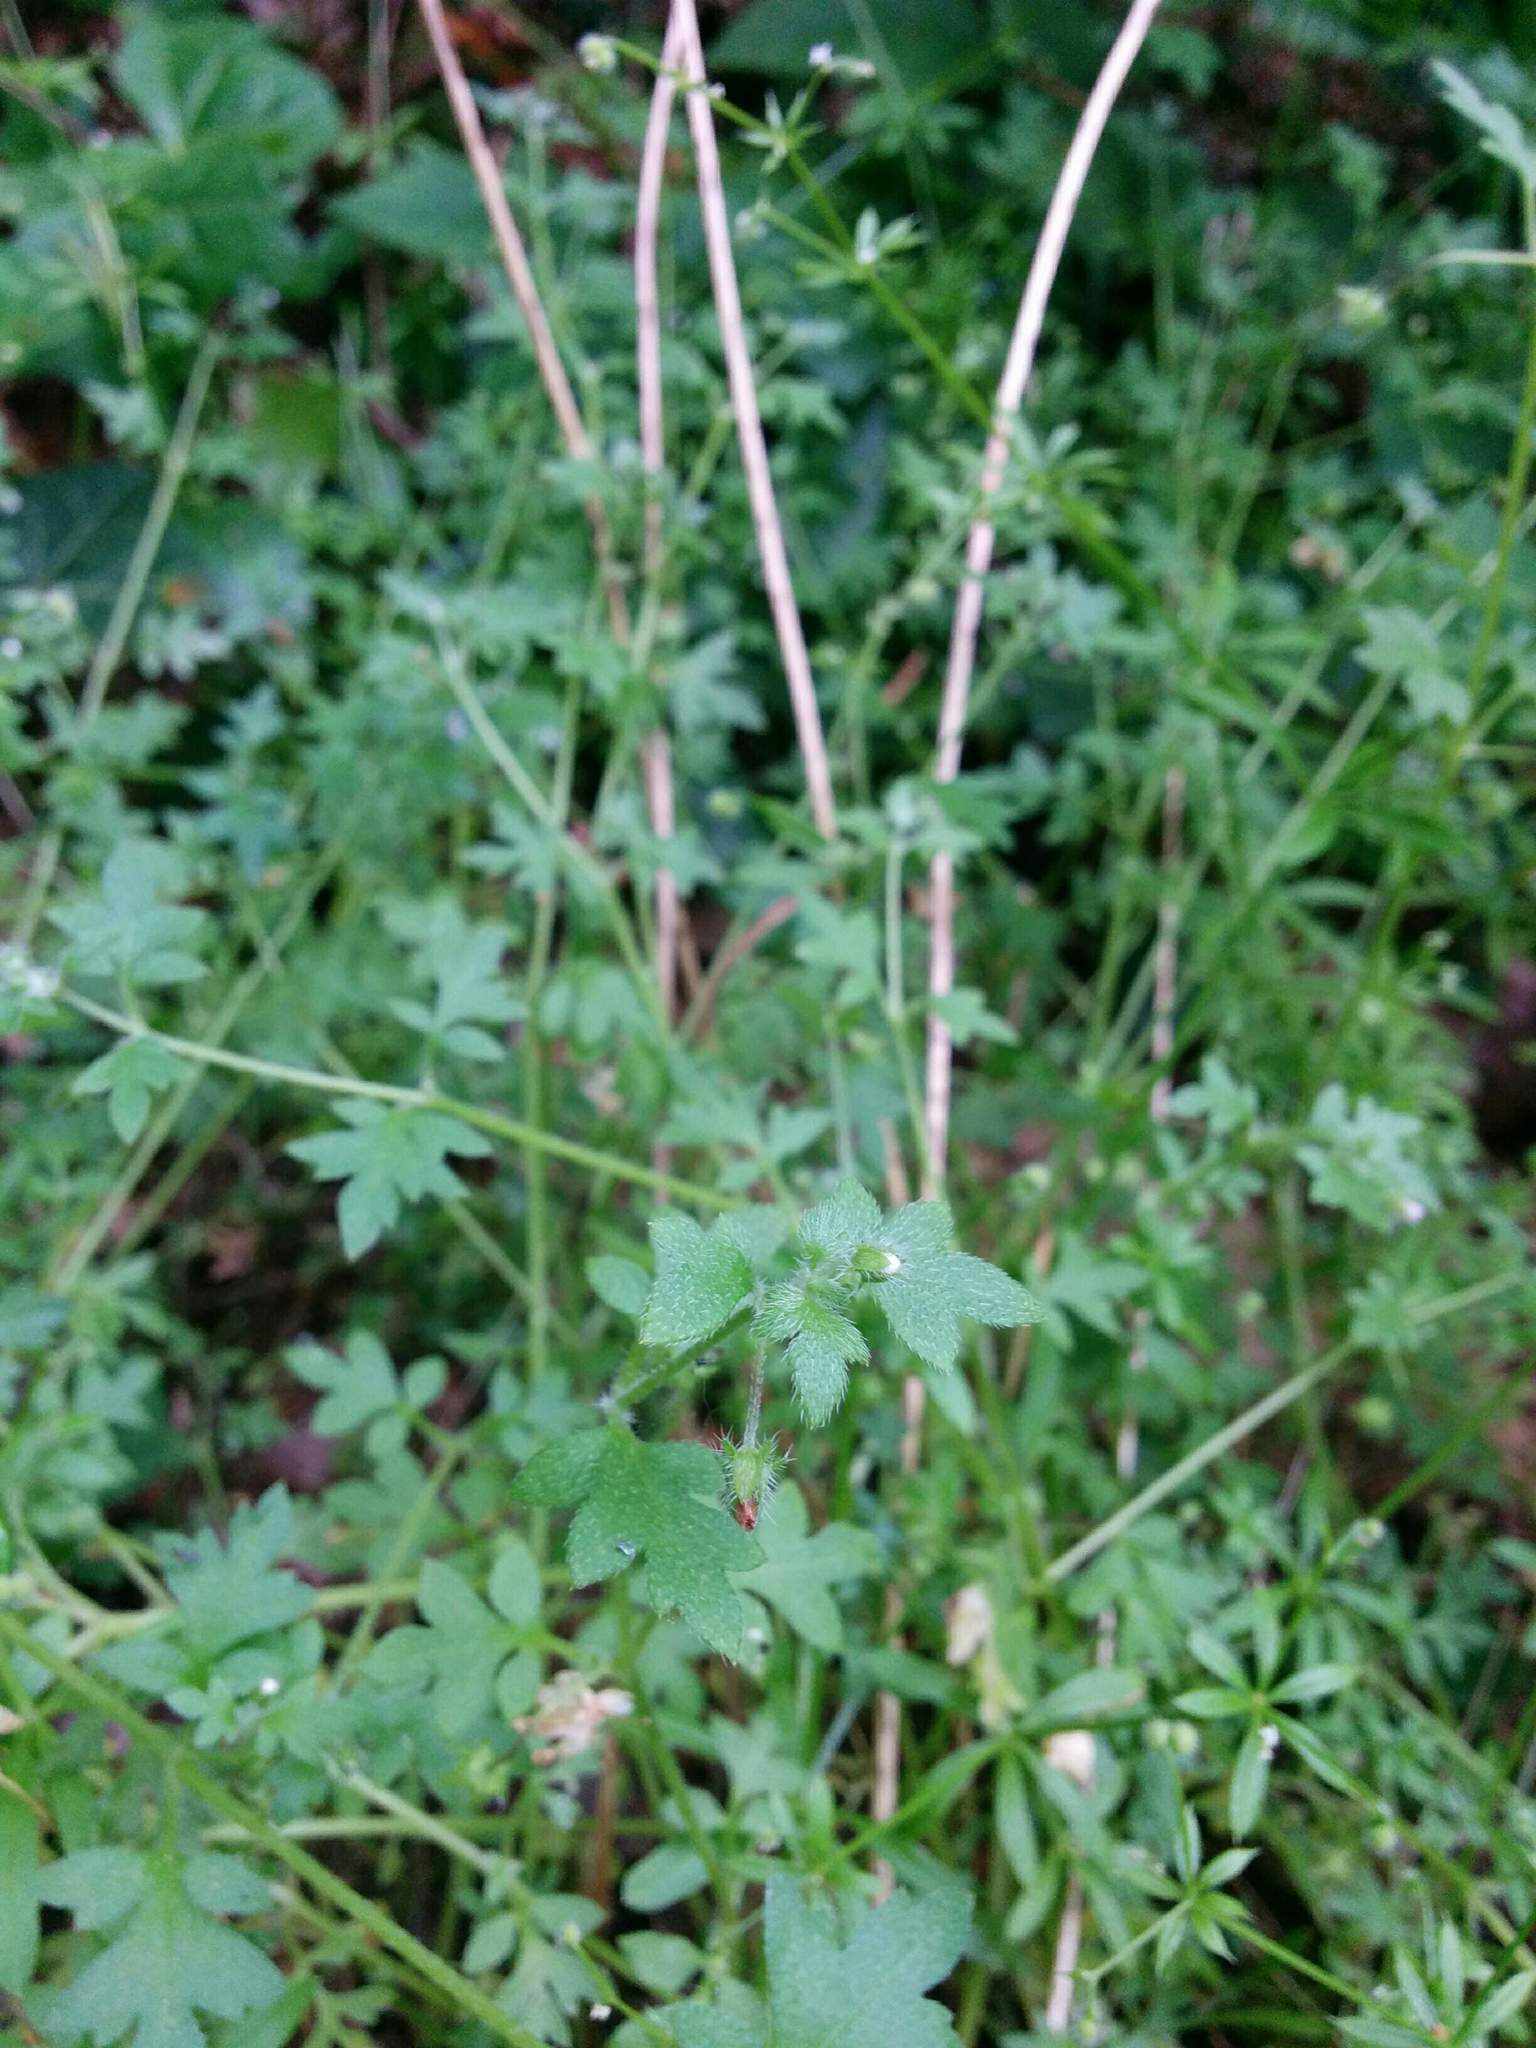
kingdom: Plantae
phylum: Tracheophyta
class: Magnoliopsida
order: Boraginales
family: Hydrophyllaceae
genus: Nemophila
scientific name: Nemophila parviflora
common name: Small-flowered baby-blue-eyes
